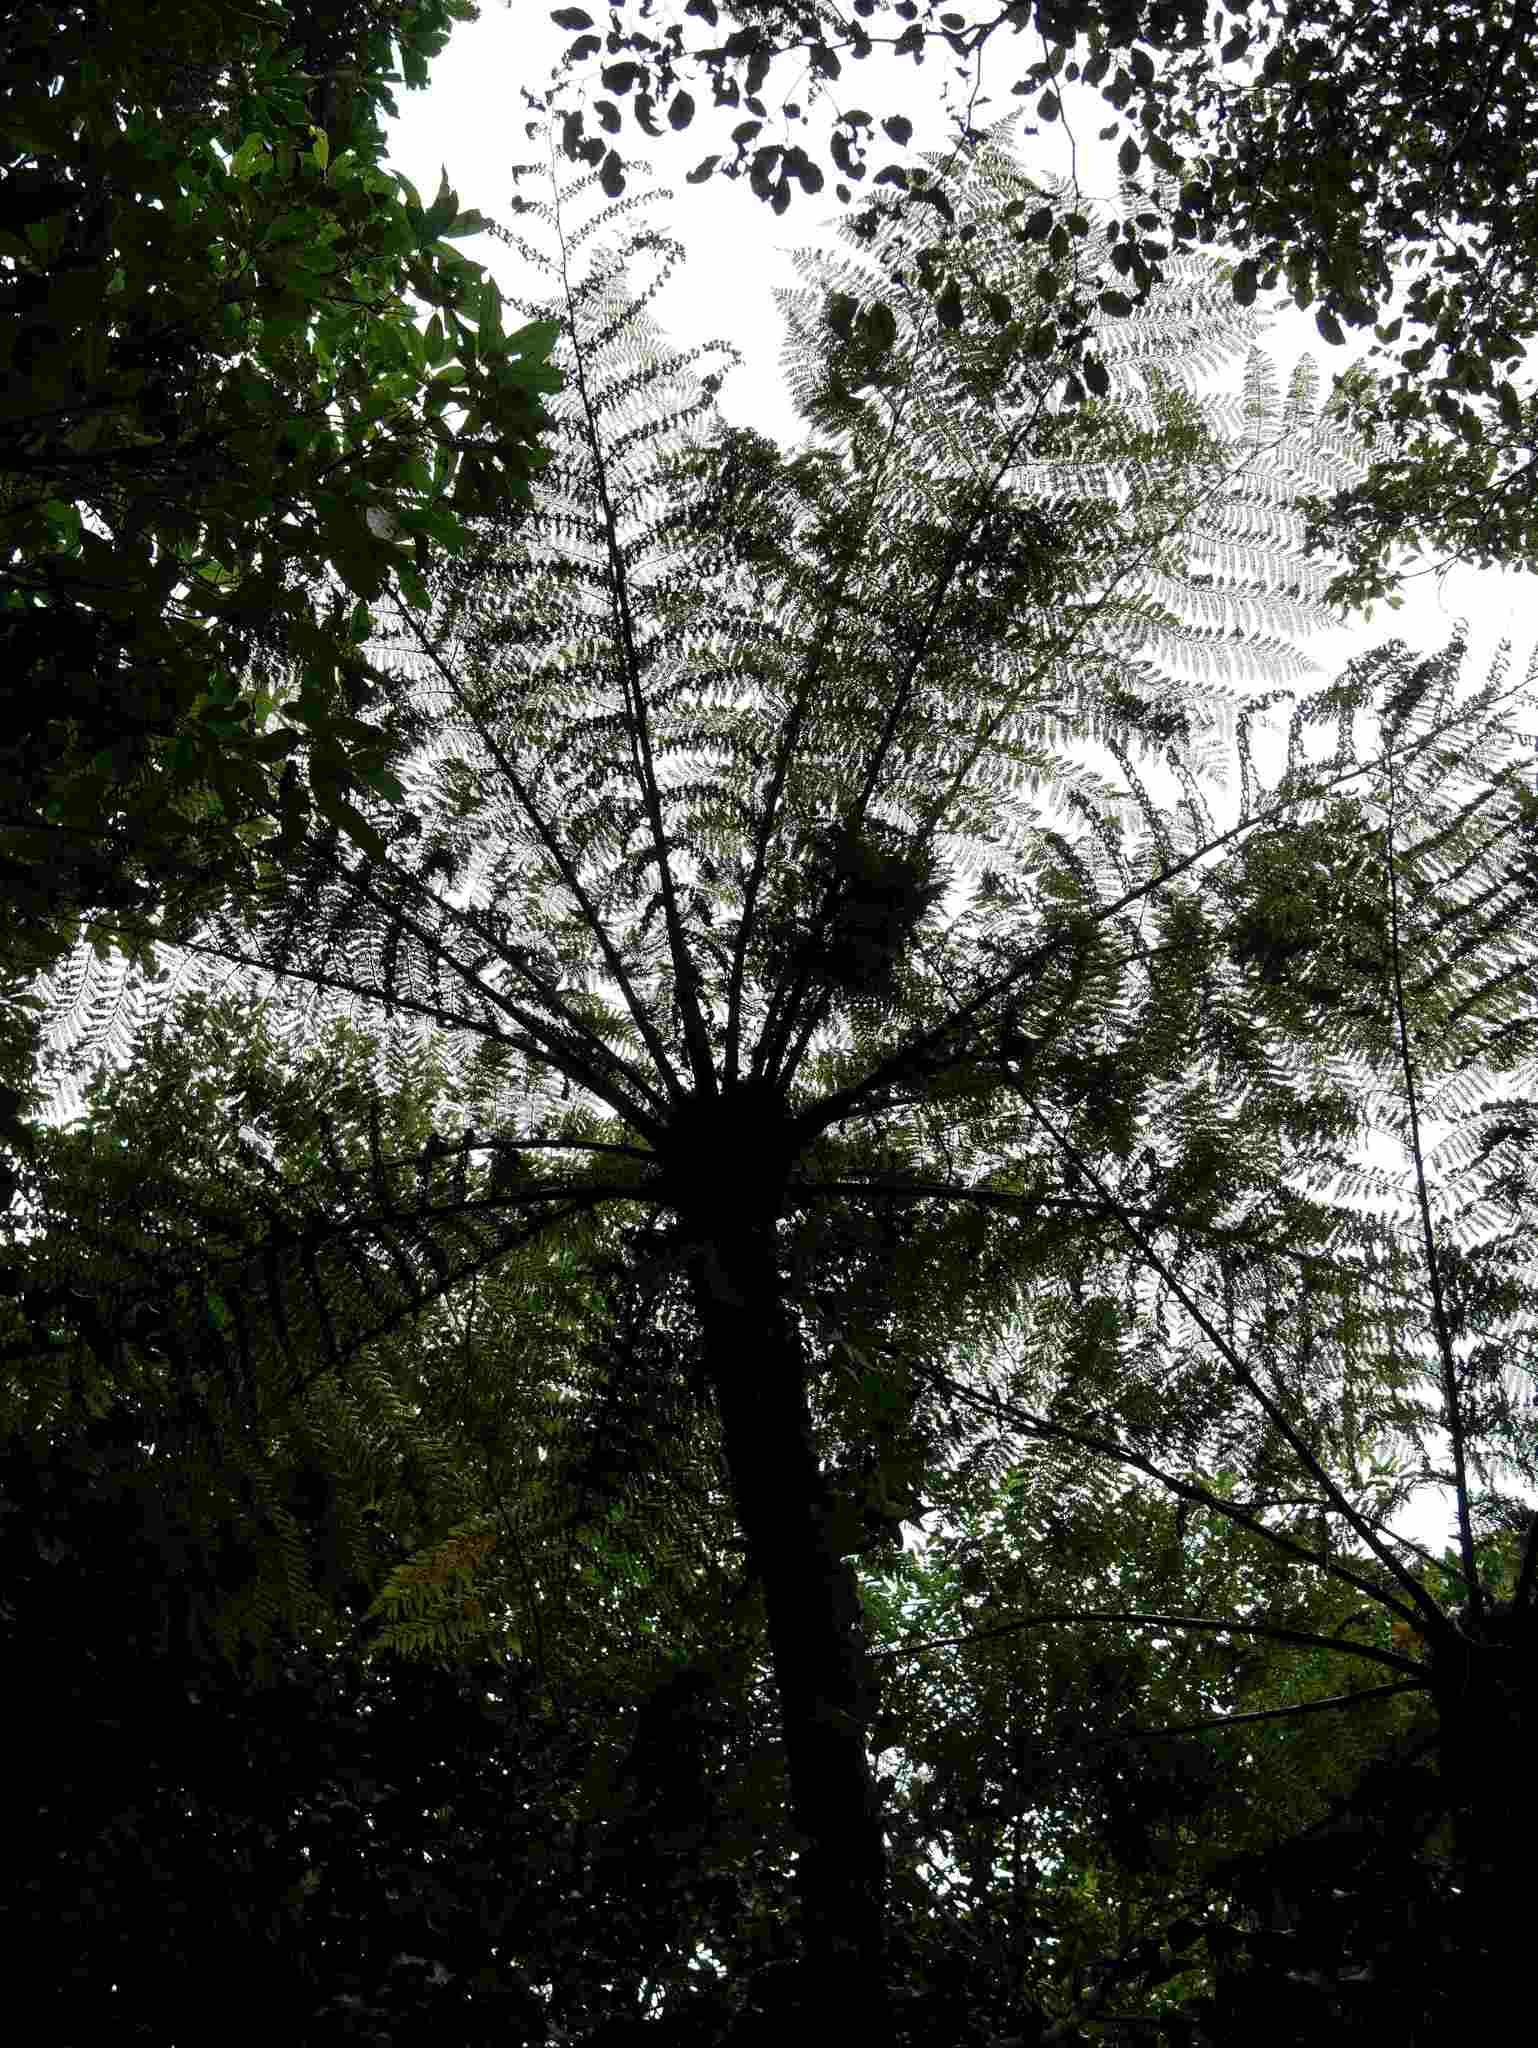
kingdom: Plantae
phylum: Tracheophyta
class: Polypodiopsida
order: Cyatheales
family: Cyatheaceae
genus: Cyathea
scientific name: Cyathea cunninghamii
